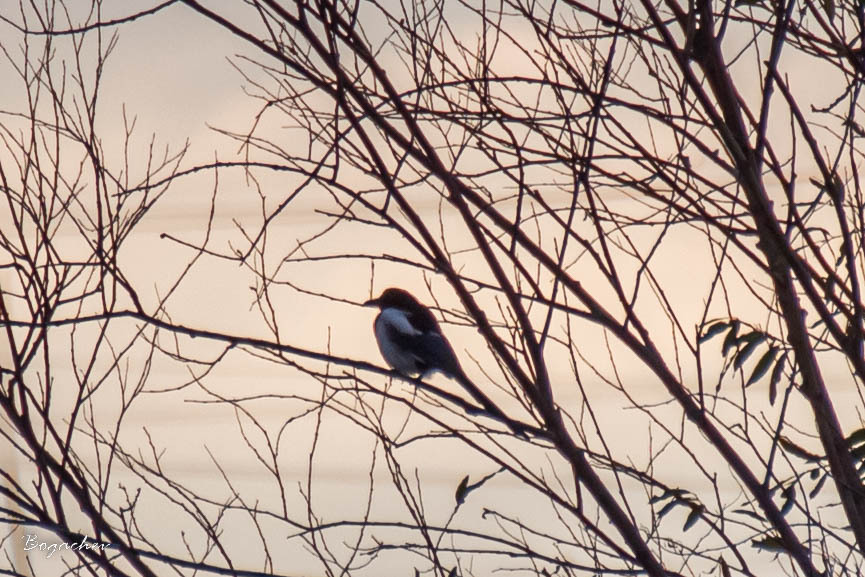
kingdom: Animalia
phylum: Chordata
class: Aves
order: Passeriformes
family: Corvidae
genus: Pica
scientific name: Pica pica
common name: Eurasian magpie
